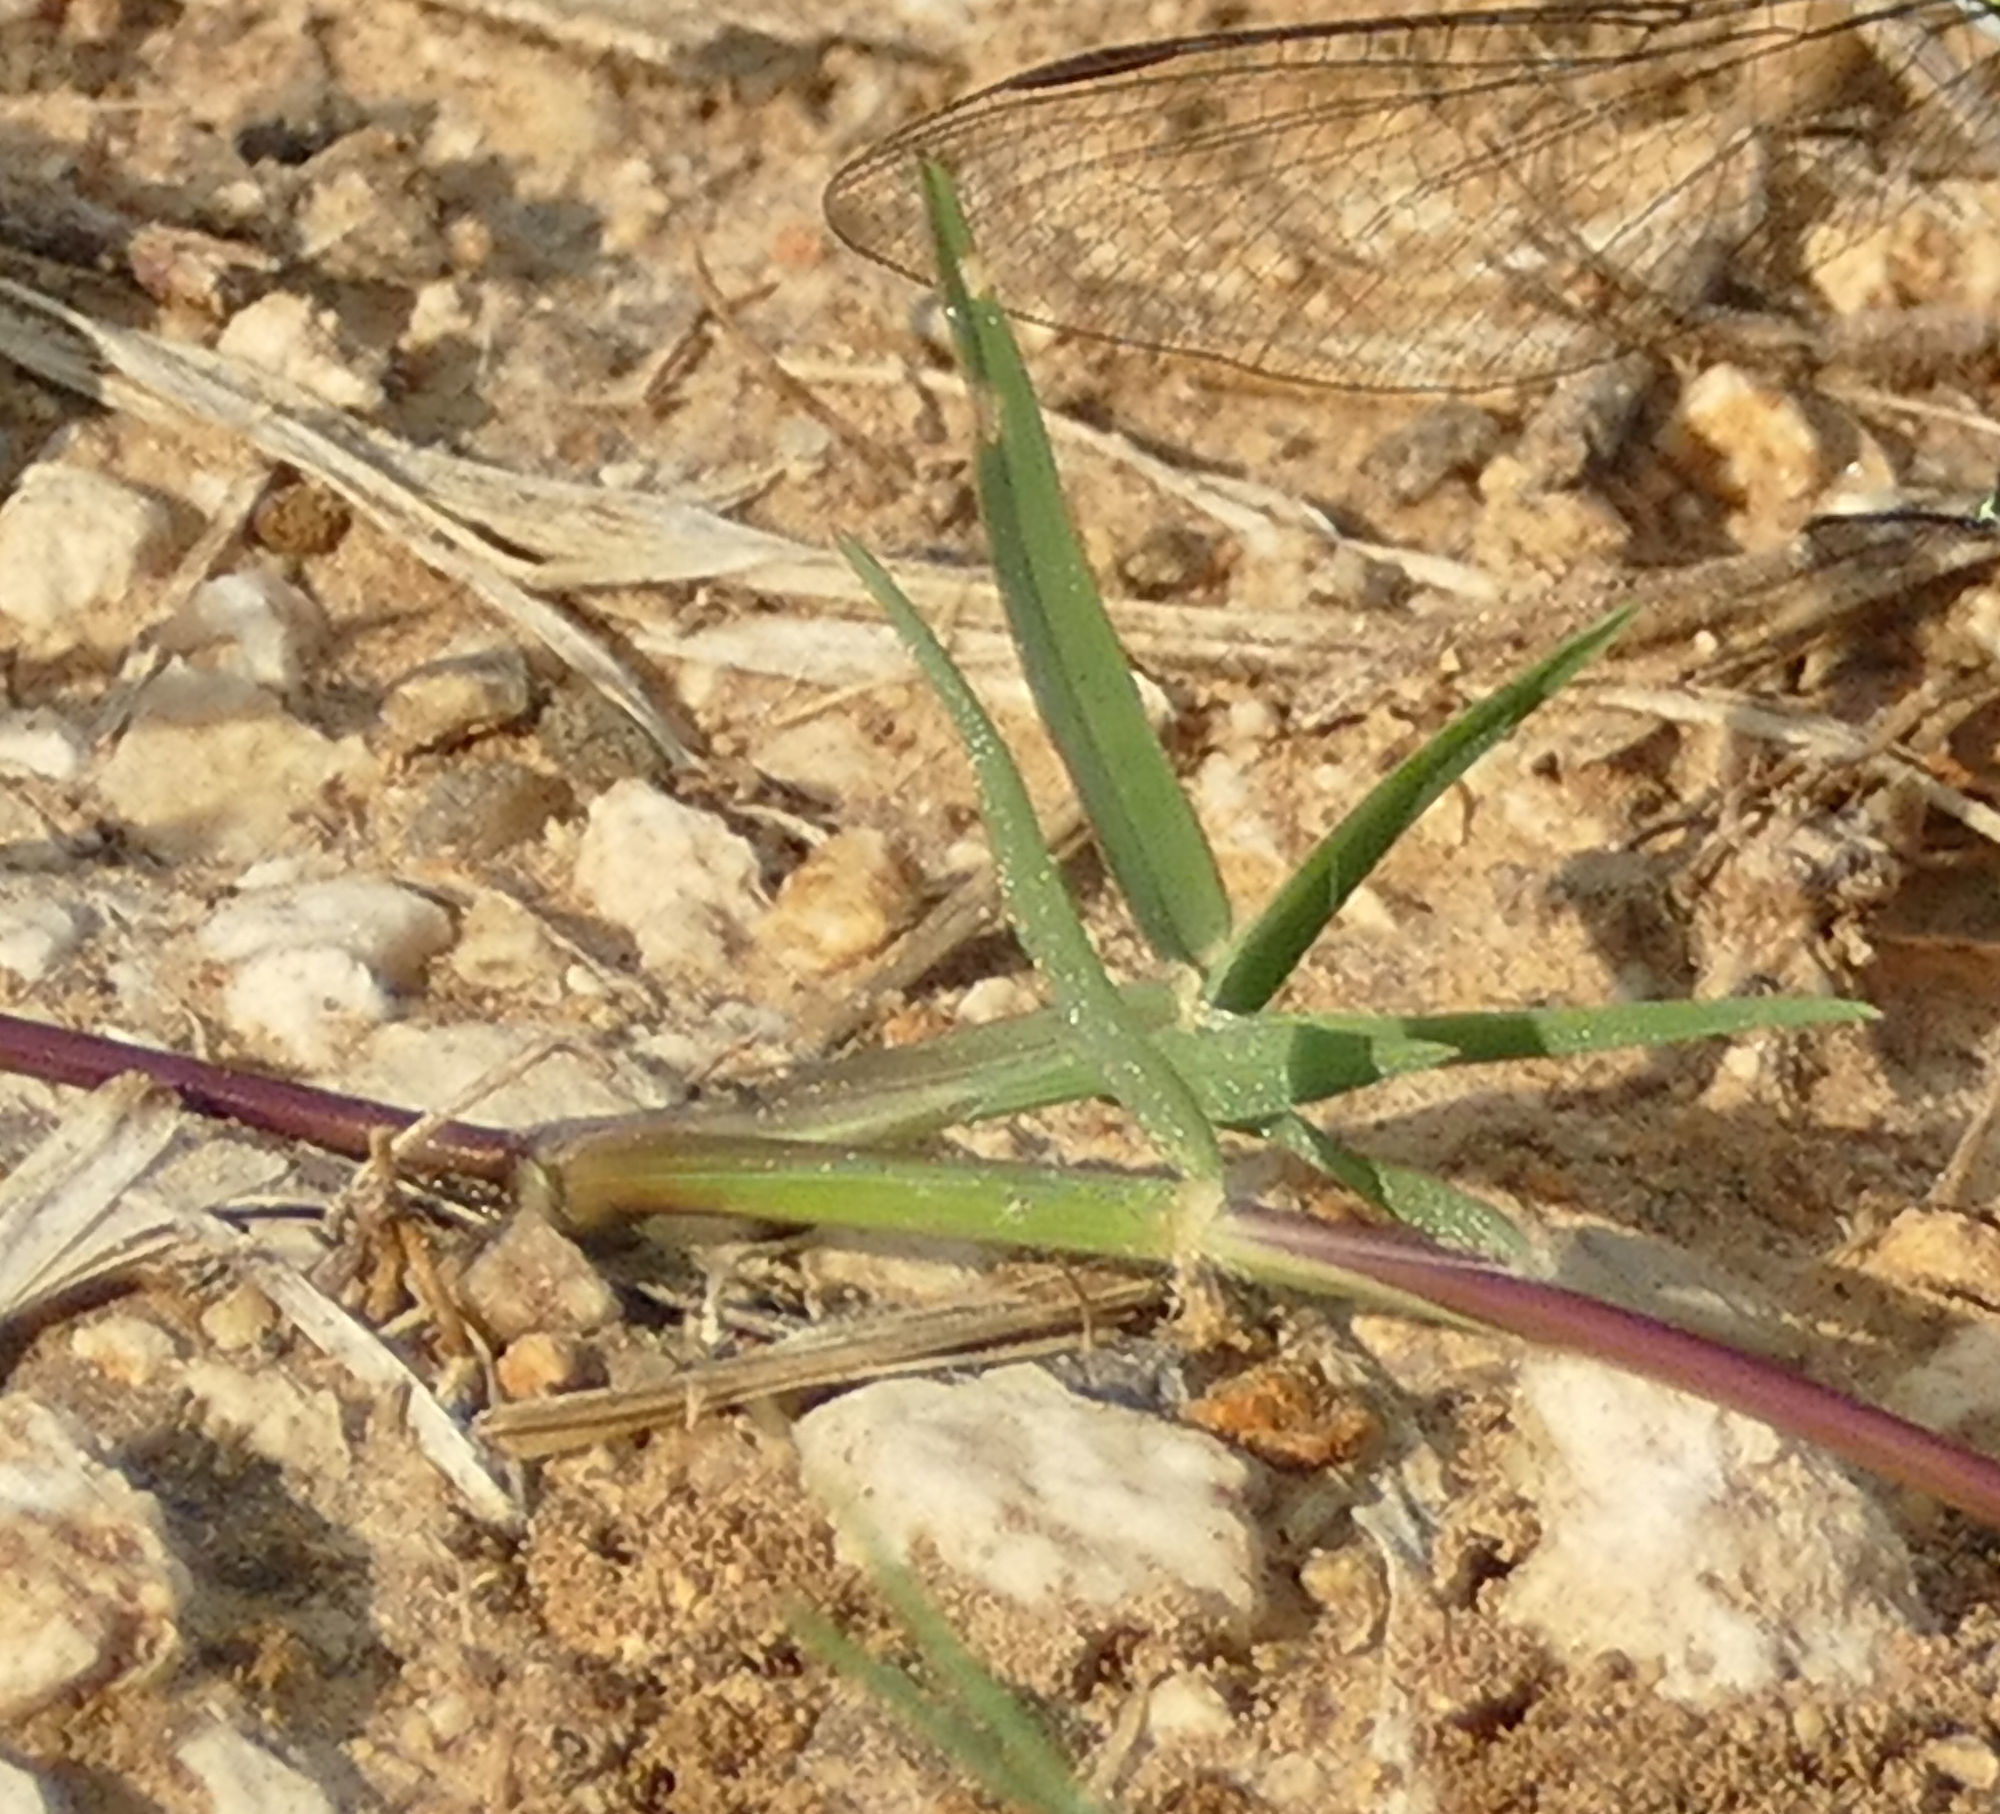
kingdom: Plantae
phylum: Tracheophyta
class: Liliopsida
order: Poales
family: Poaceae
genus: Digitaria
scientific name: Digitaria ciliaris
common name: Tropical finger-grass
